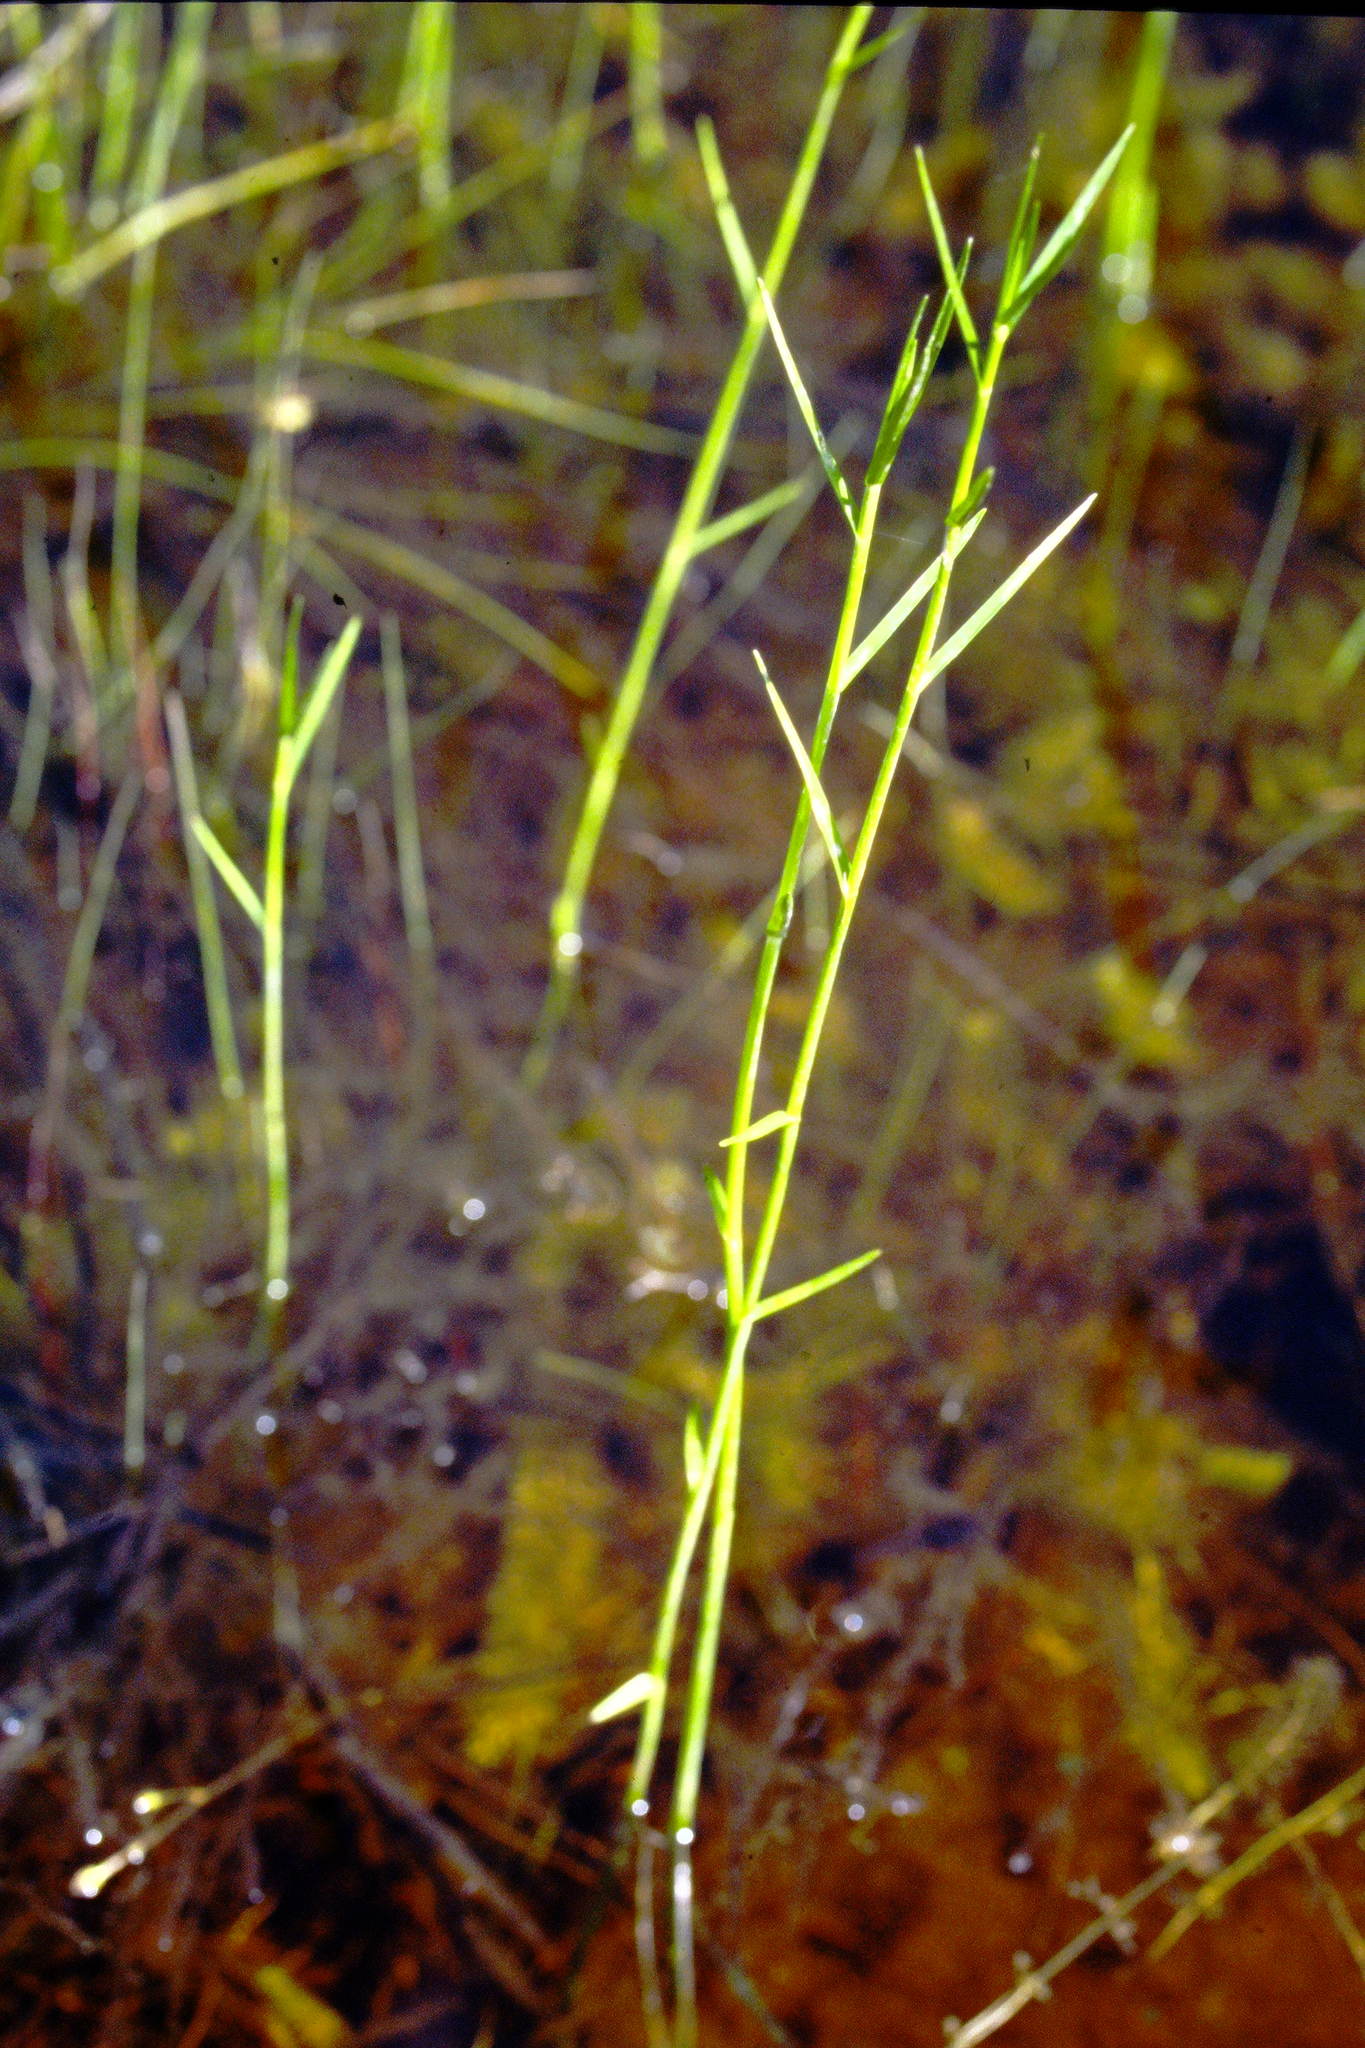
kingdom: Plantae
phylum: Tracheophyta
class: Liliopsida
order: Poales
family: Cyperaceae
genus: Dulichium
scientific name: Dulichium arundinaceum
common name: Three-way sedge
